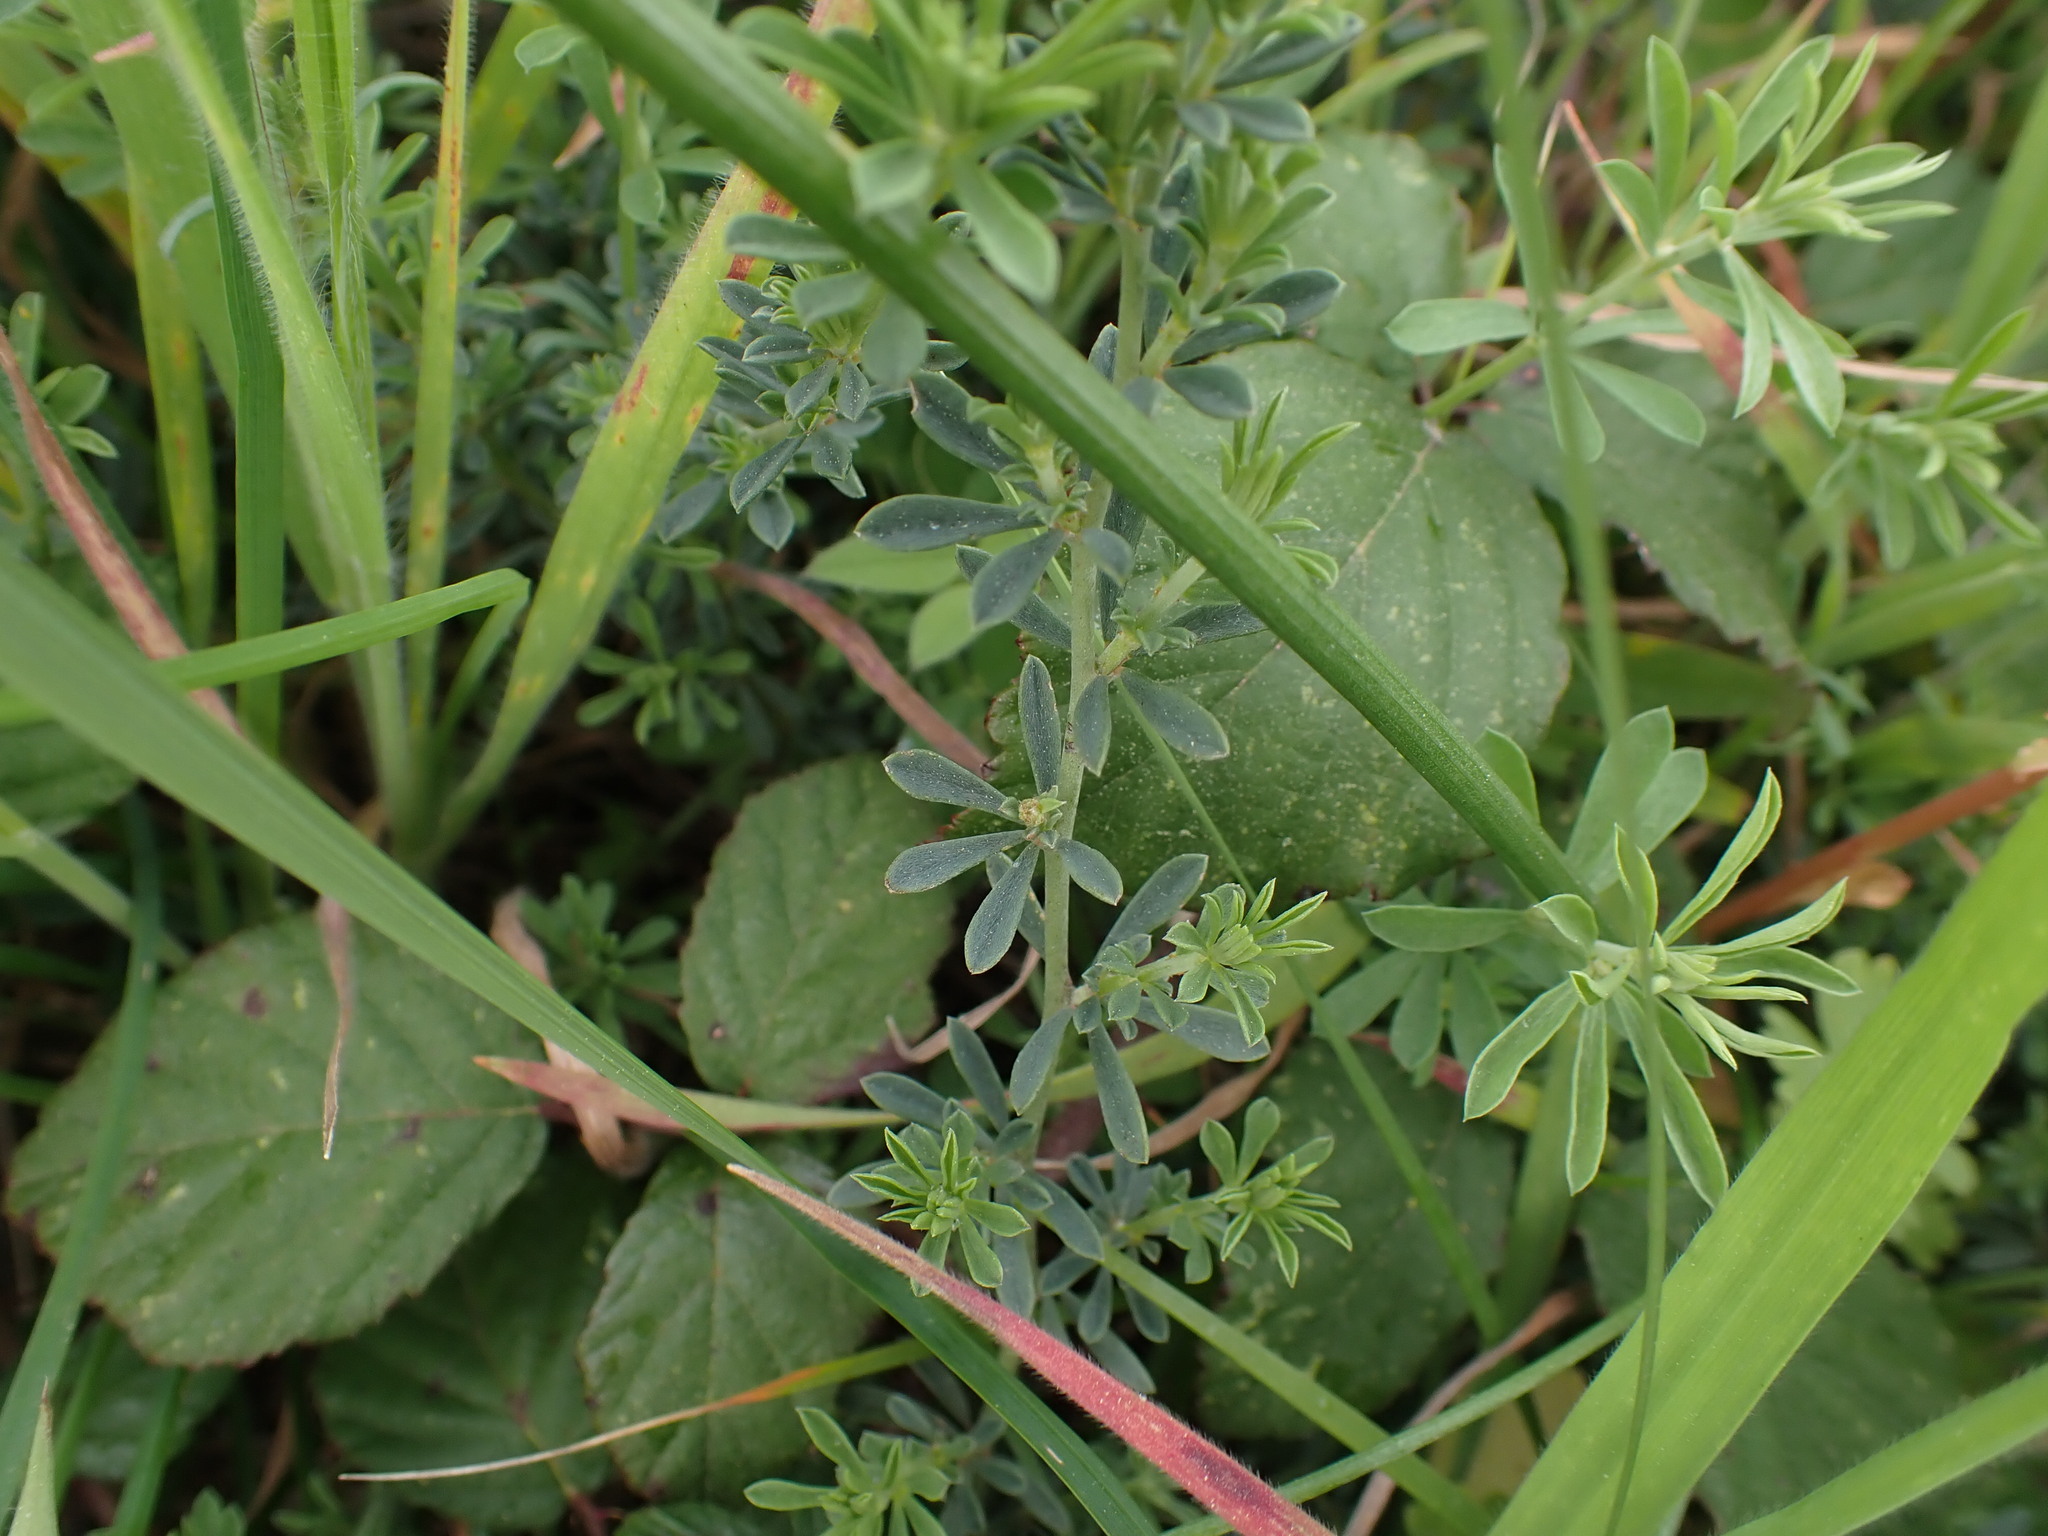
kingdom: Plantae
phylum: Tracheophyta
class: Magnoliopsida
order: Fabales
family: Fabaceae
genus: Lotus
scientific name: Lotus dorycnium
